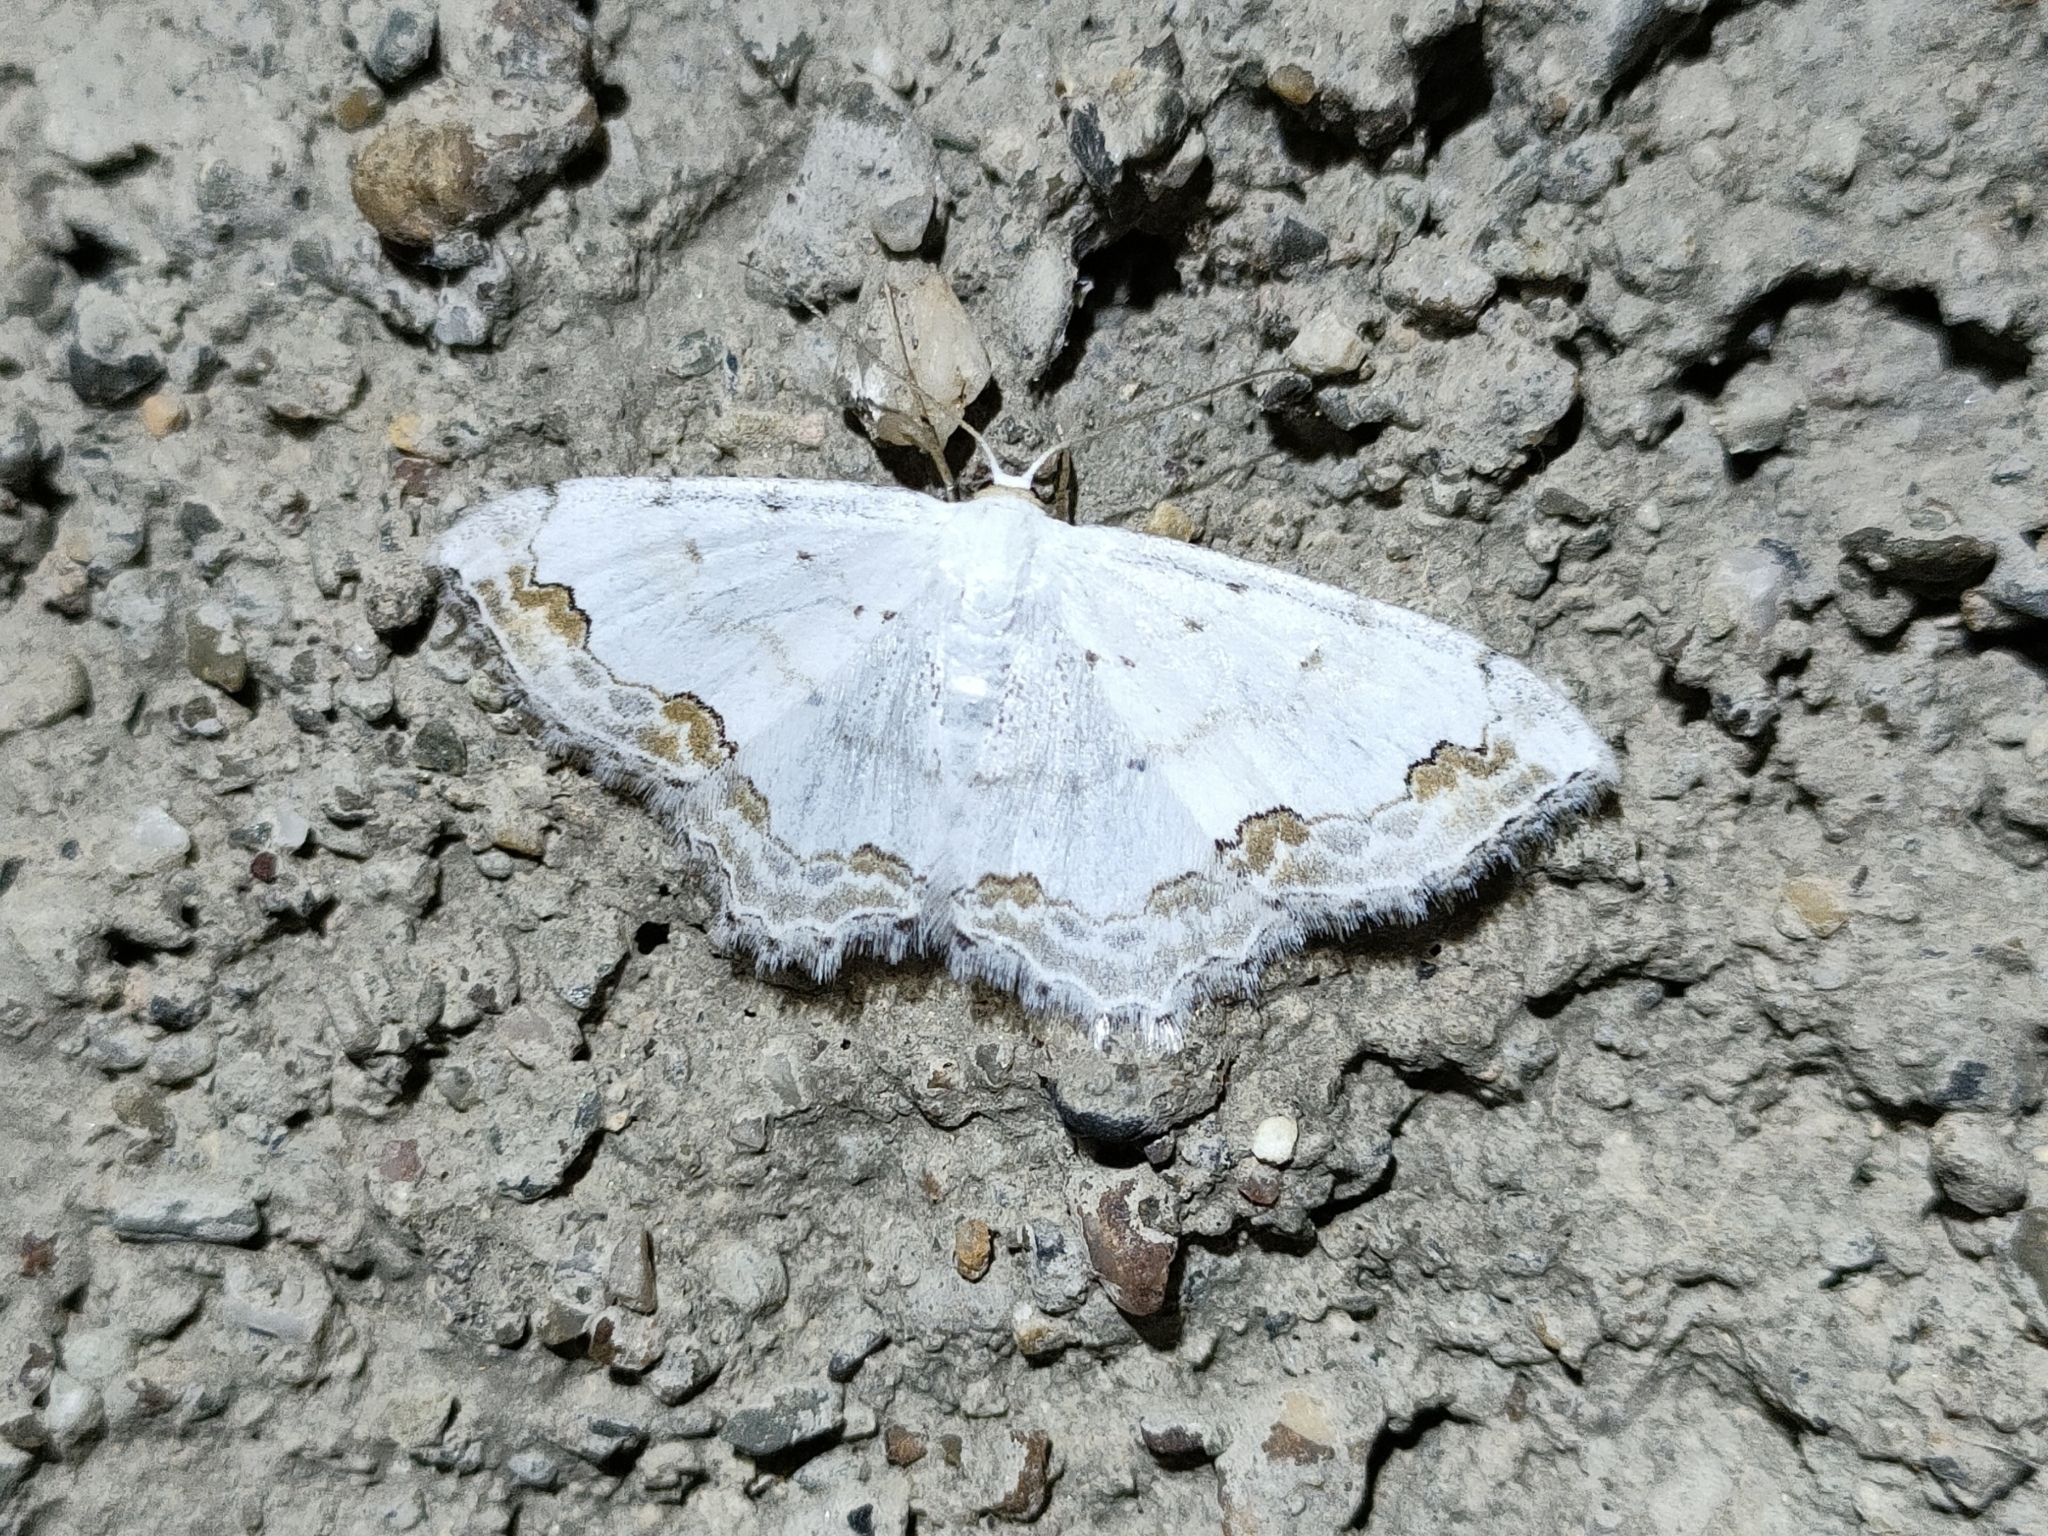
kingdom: Animalia
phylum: Arthropoda
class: Insecta
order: Lepidoptera
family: Geometridae
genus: Scopula
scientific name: Scopula ornata
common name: Lace border
